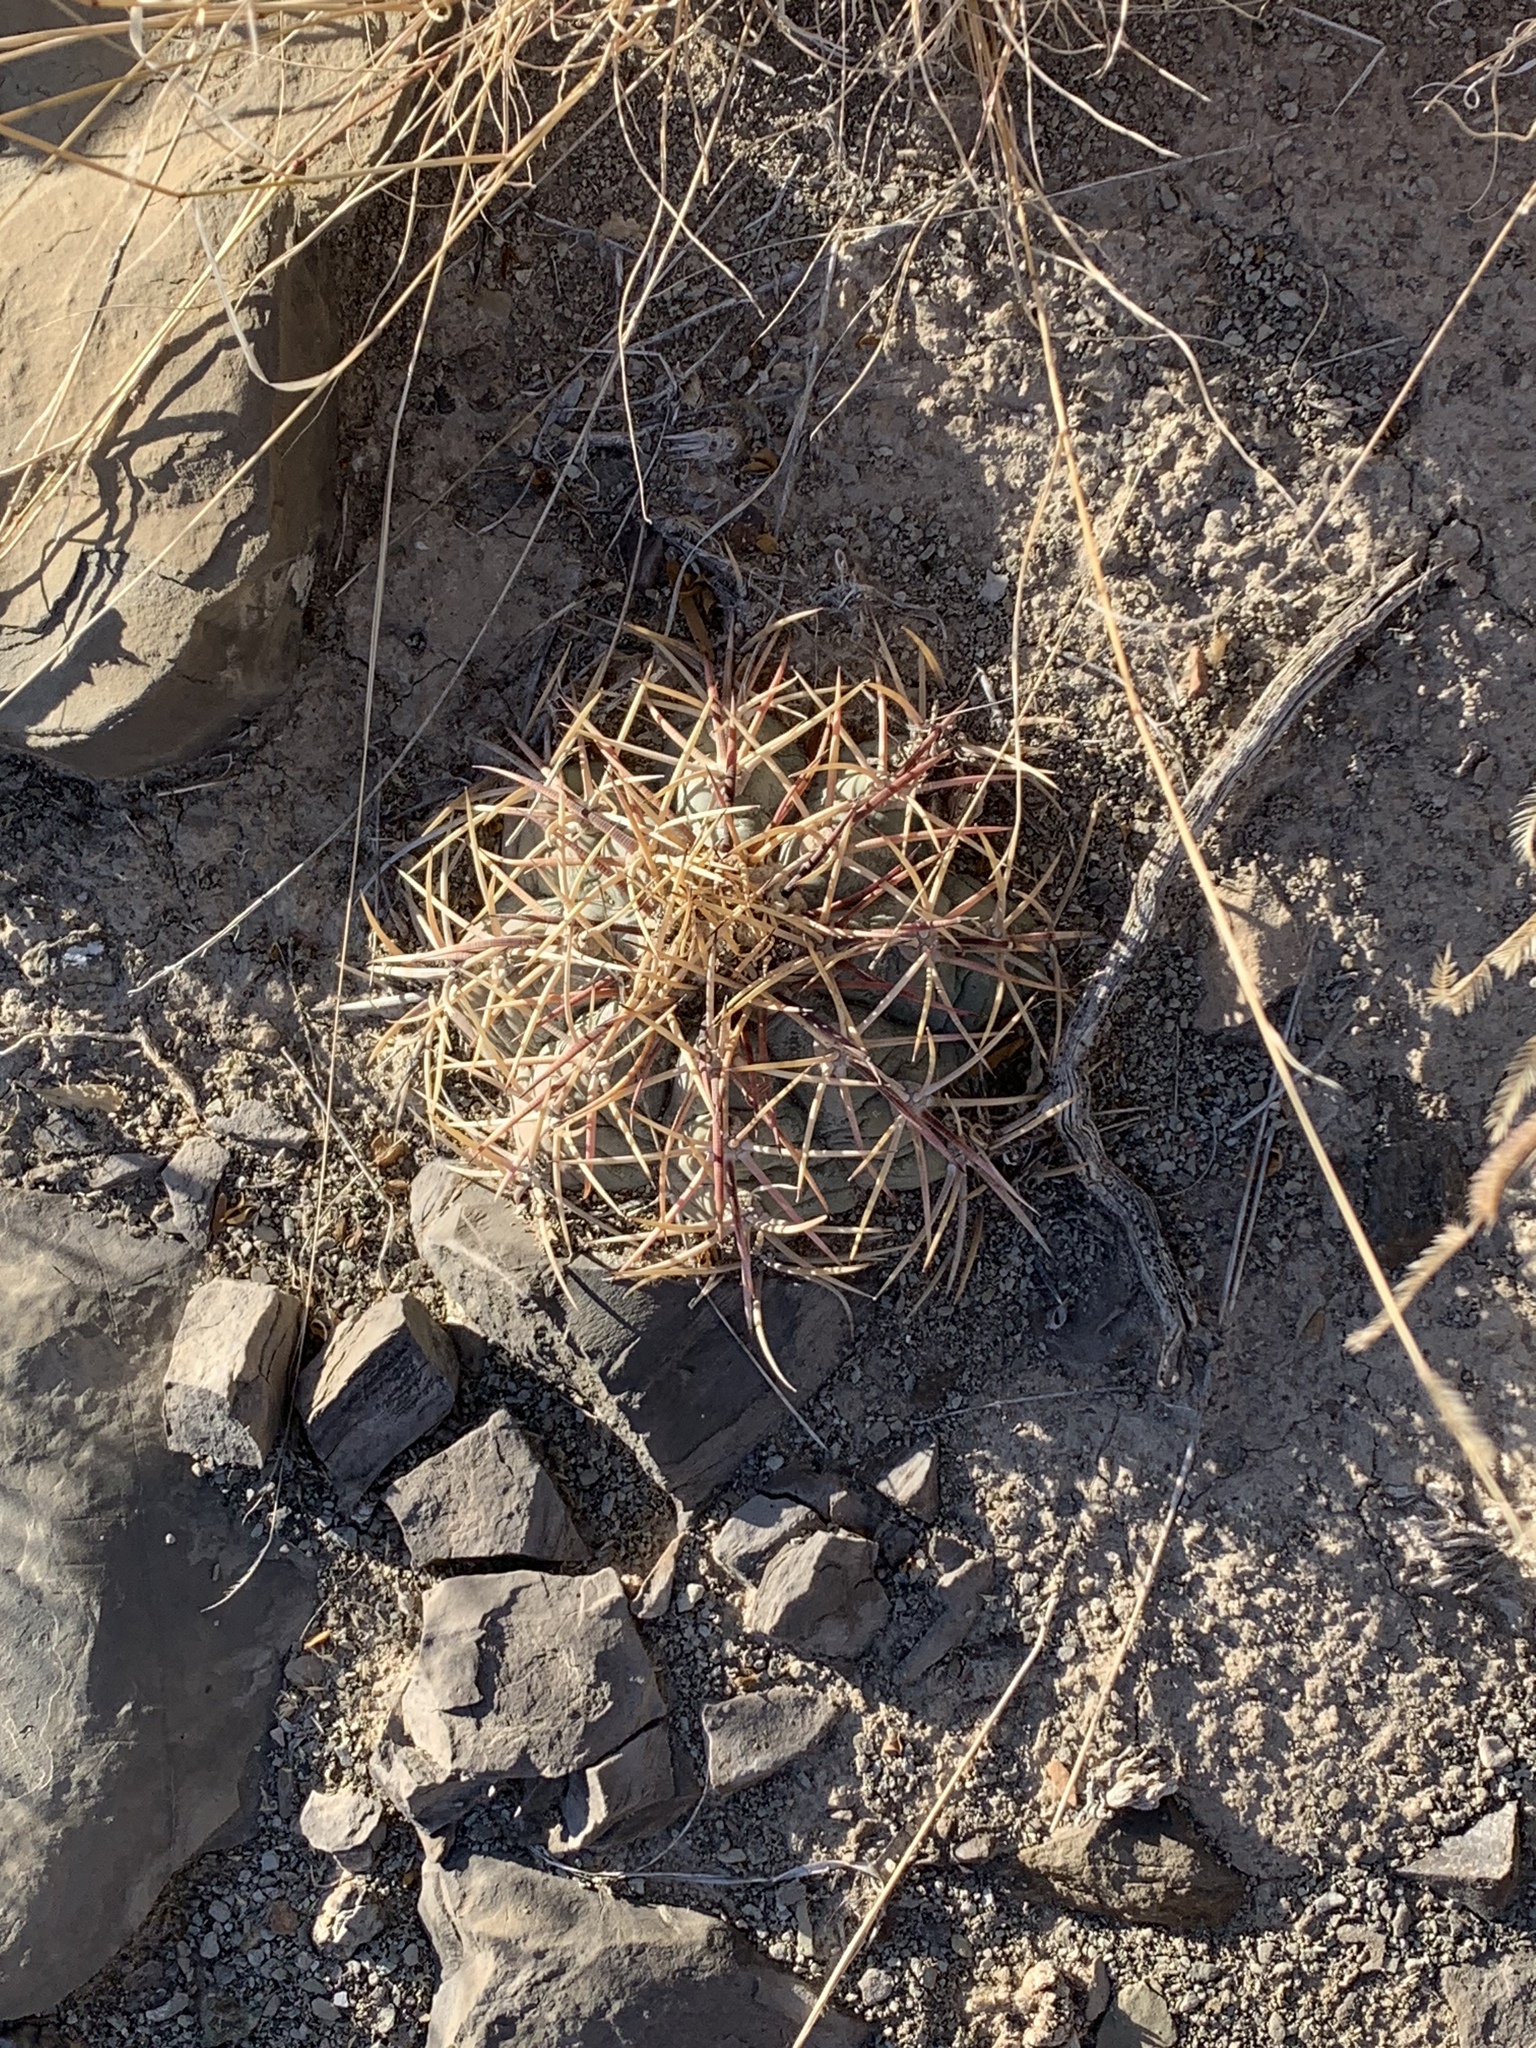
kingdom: Plantae
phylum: Tracheophyta
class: Magnoliopsida
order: Caryophyllales
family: Cactaceae
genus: Echinocactus
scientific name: Echinocactus horizonthalonius
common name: Devilshead
